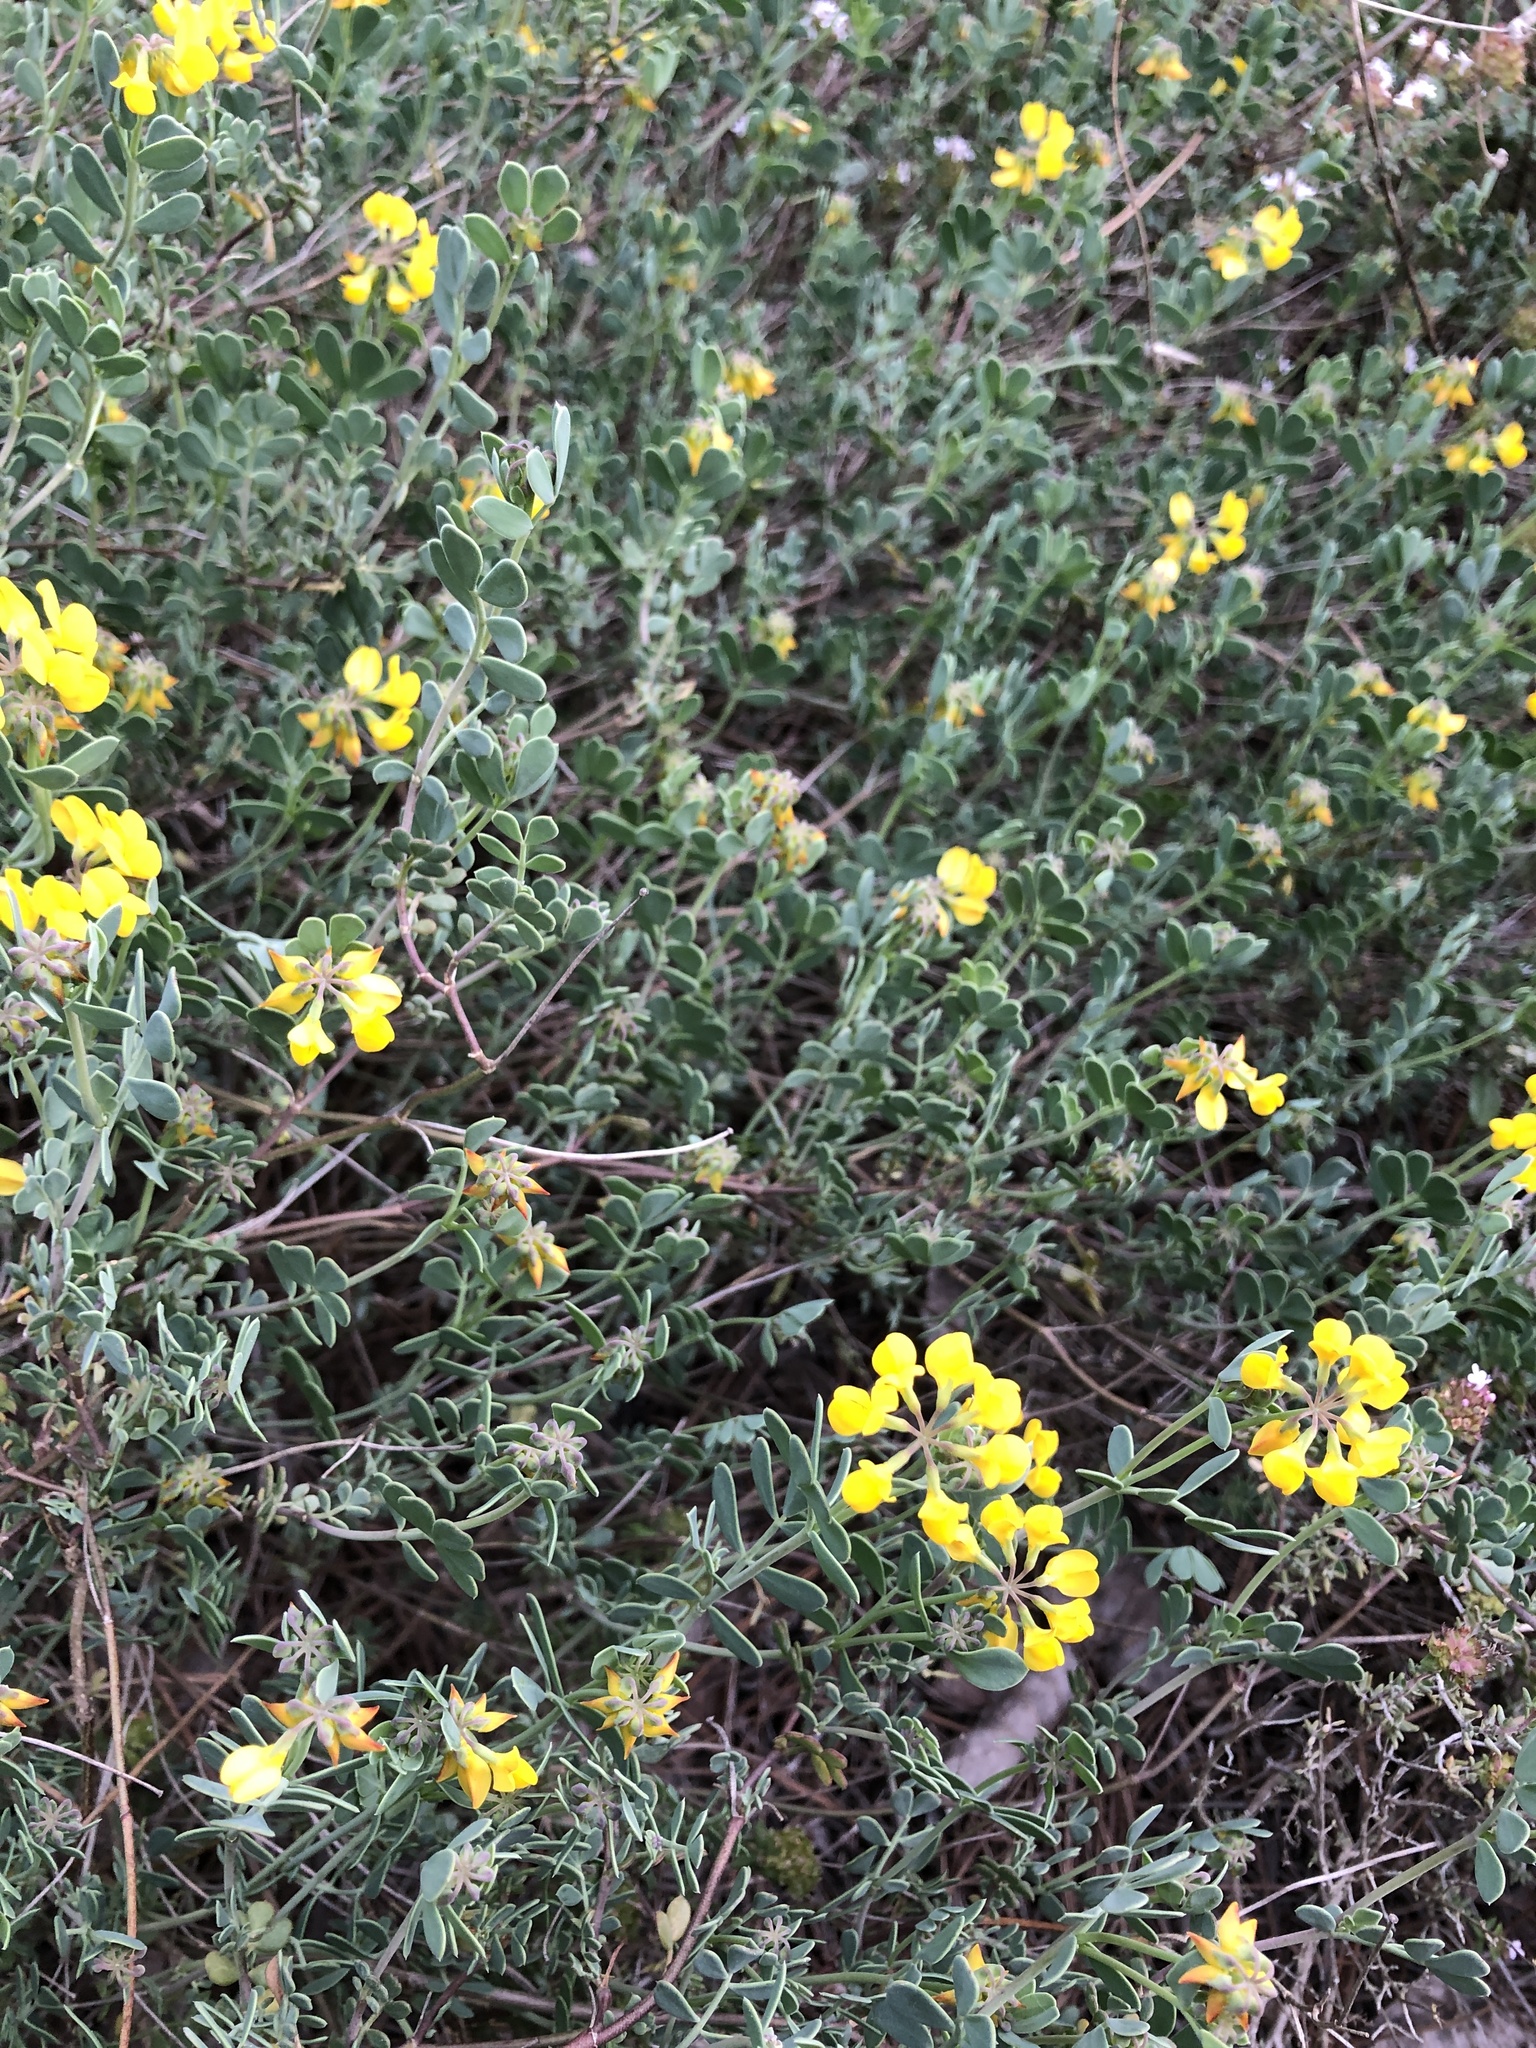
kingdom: Plantae
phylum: Tracheophyta
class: Magnoliopsida
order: Fabales
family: Fabaceae
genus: Coronilla
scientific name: Coronilla minima
